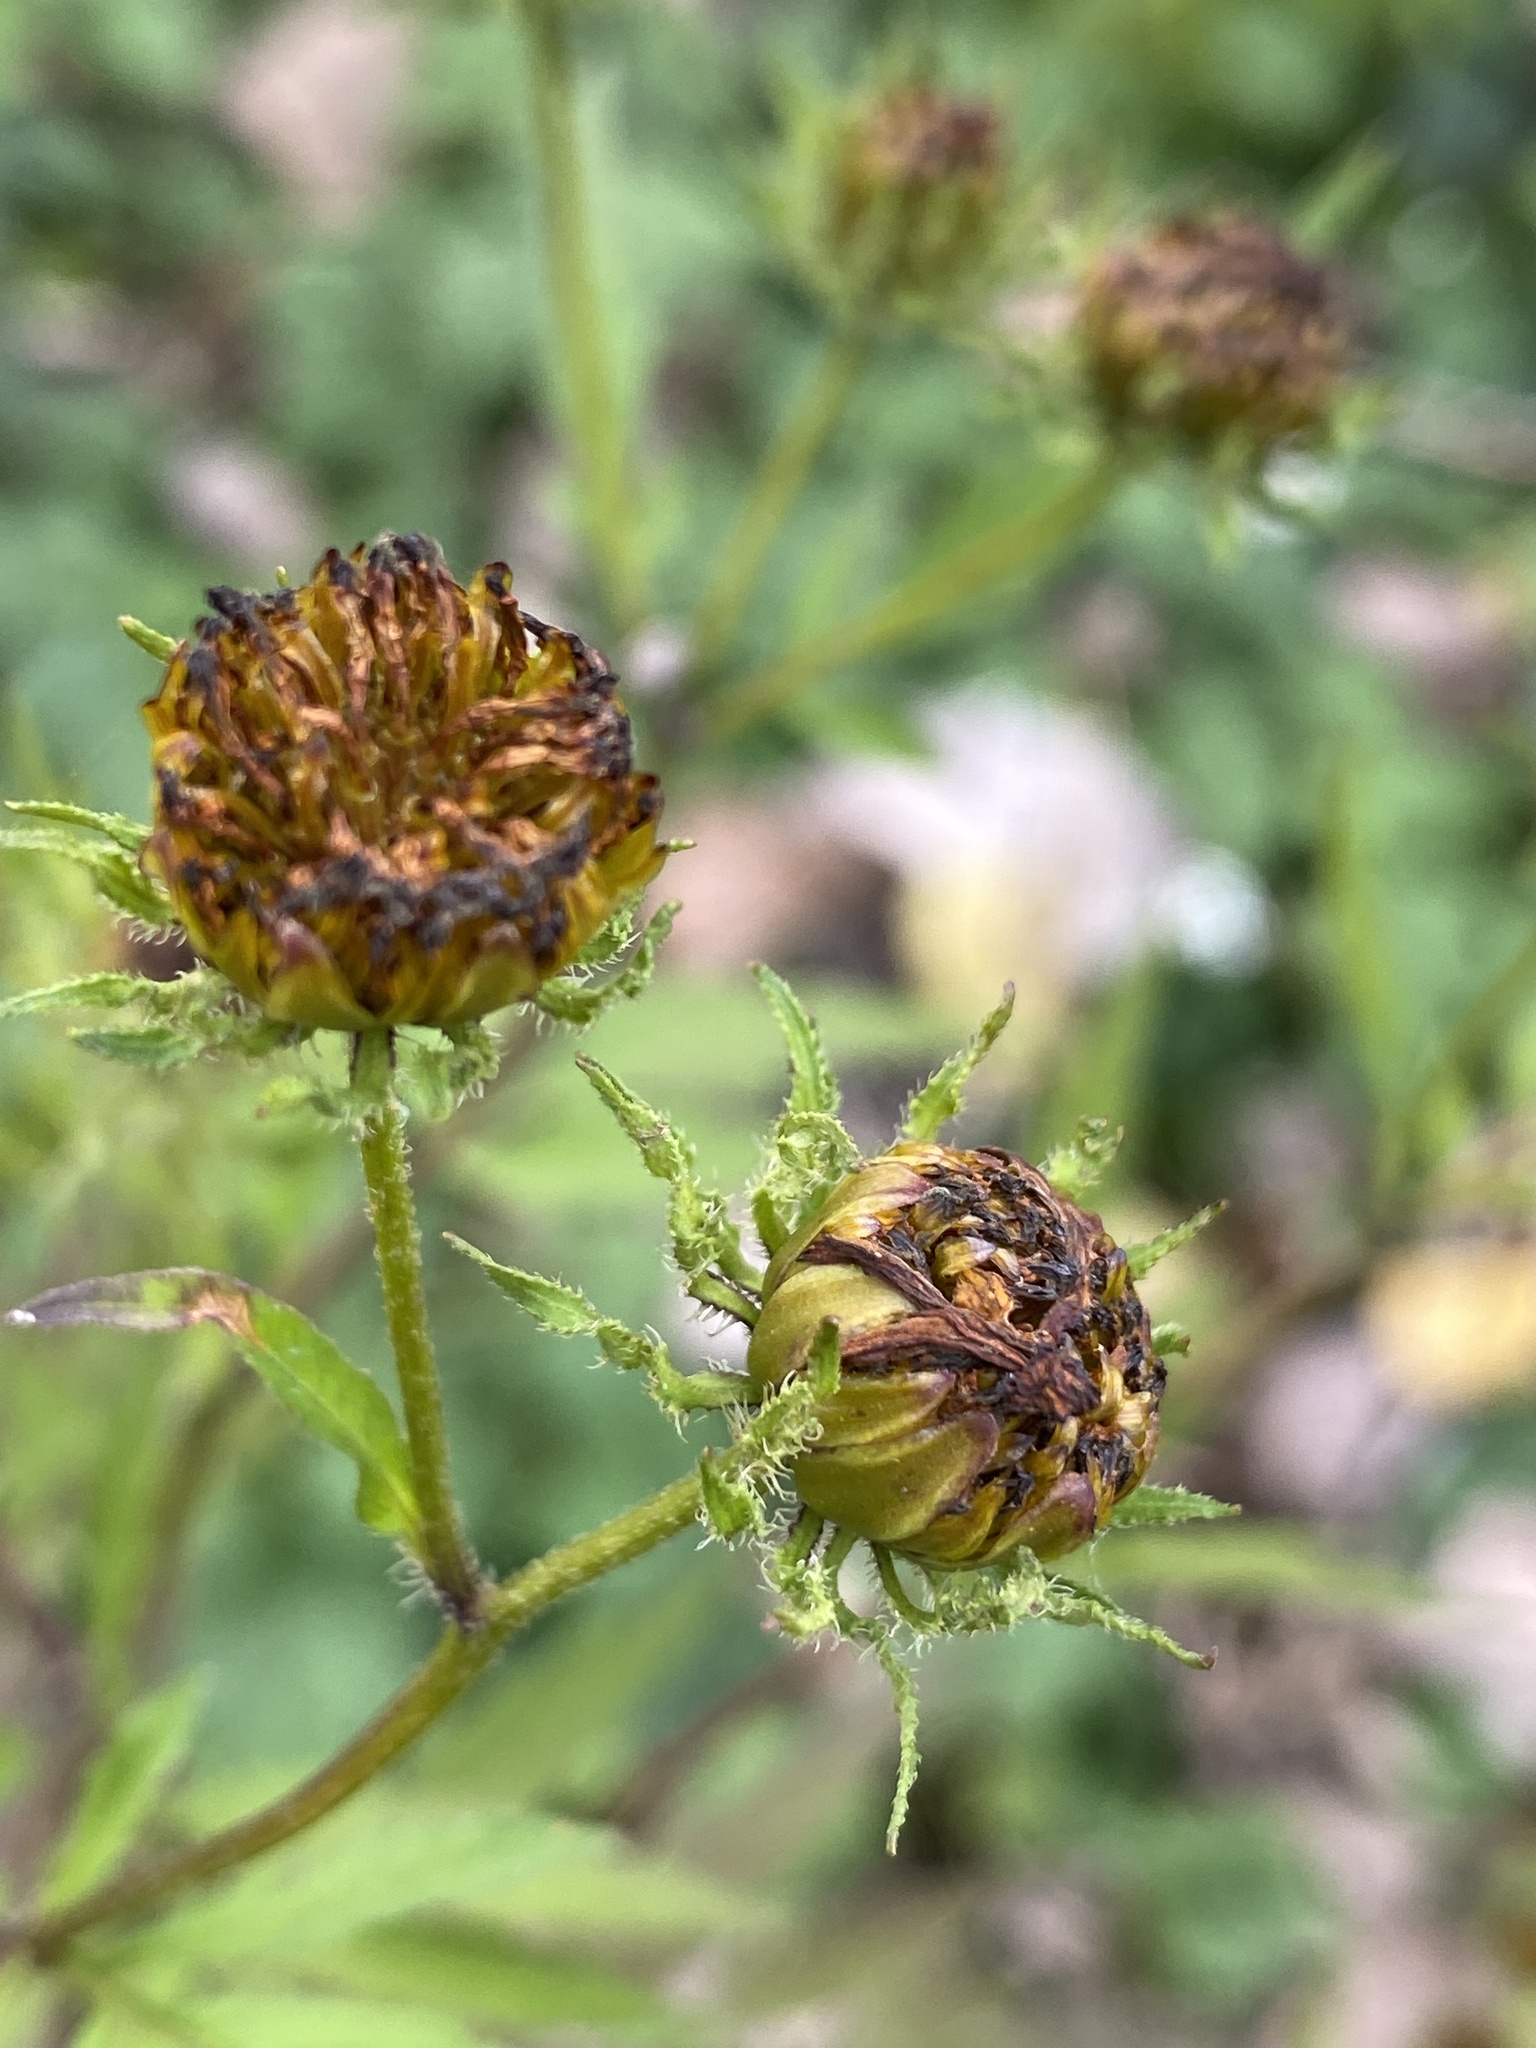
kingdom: Plantae
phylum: Tracheophyta
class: Magnoliopsida
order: Asterales
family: Asteraceae
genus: Bidens
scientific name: Bidens polylepis
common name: Awnless beggarticks
